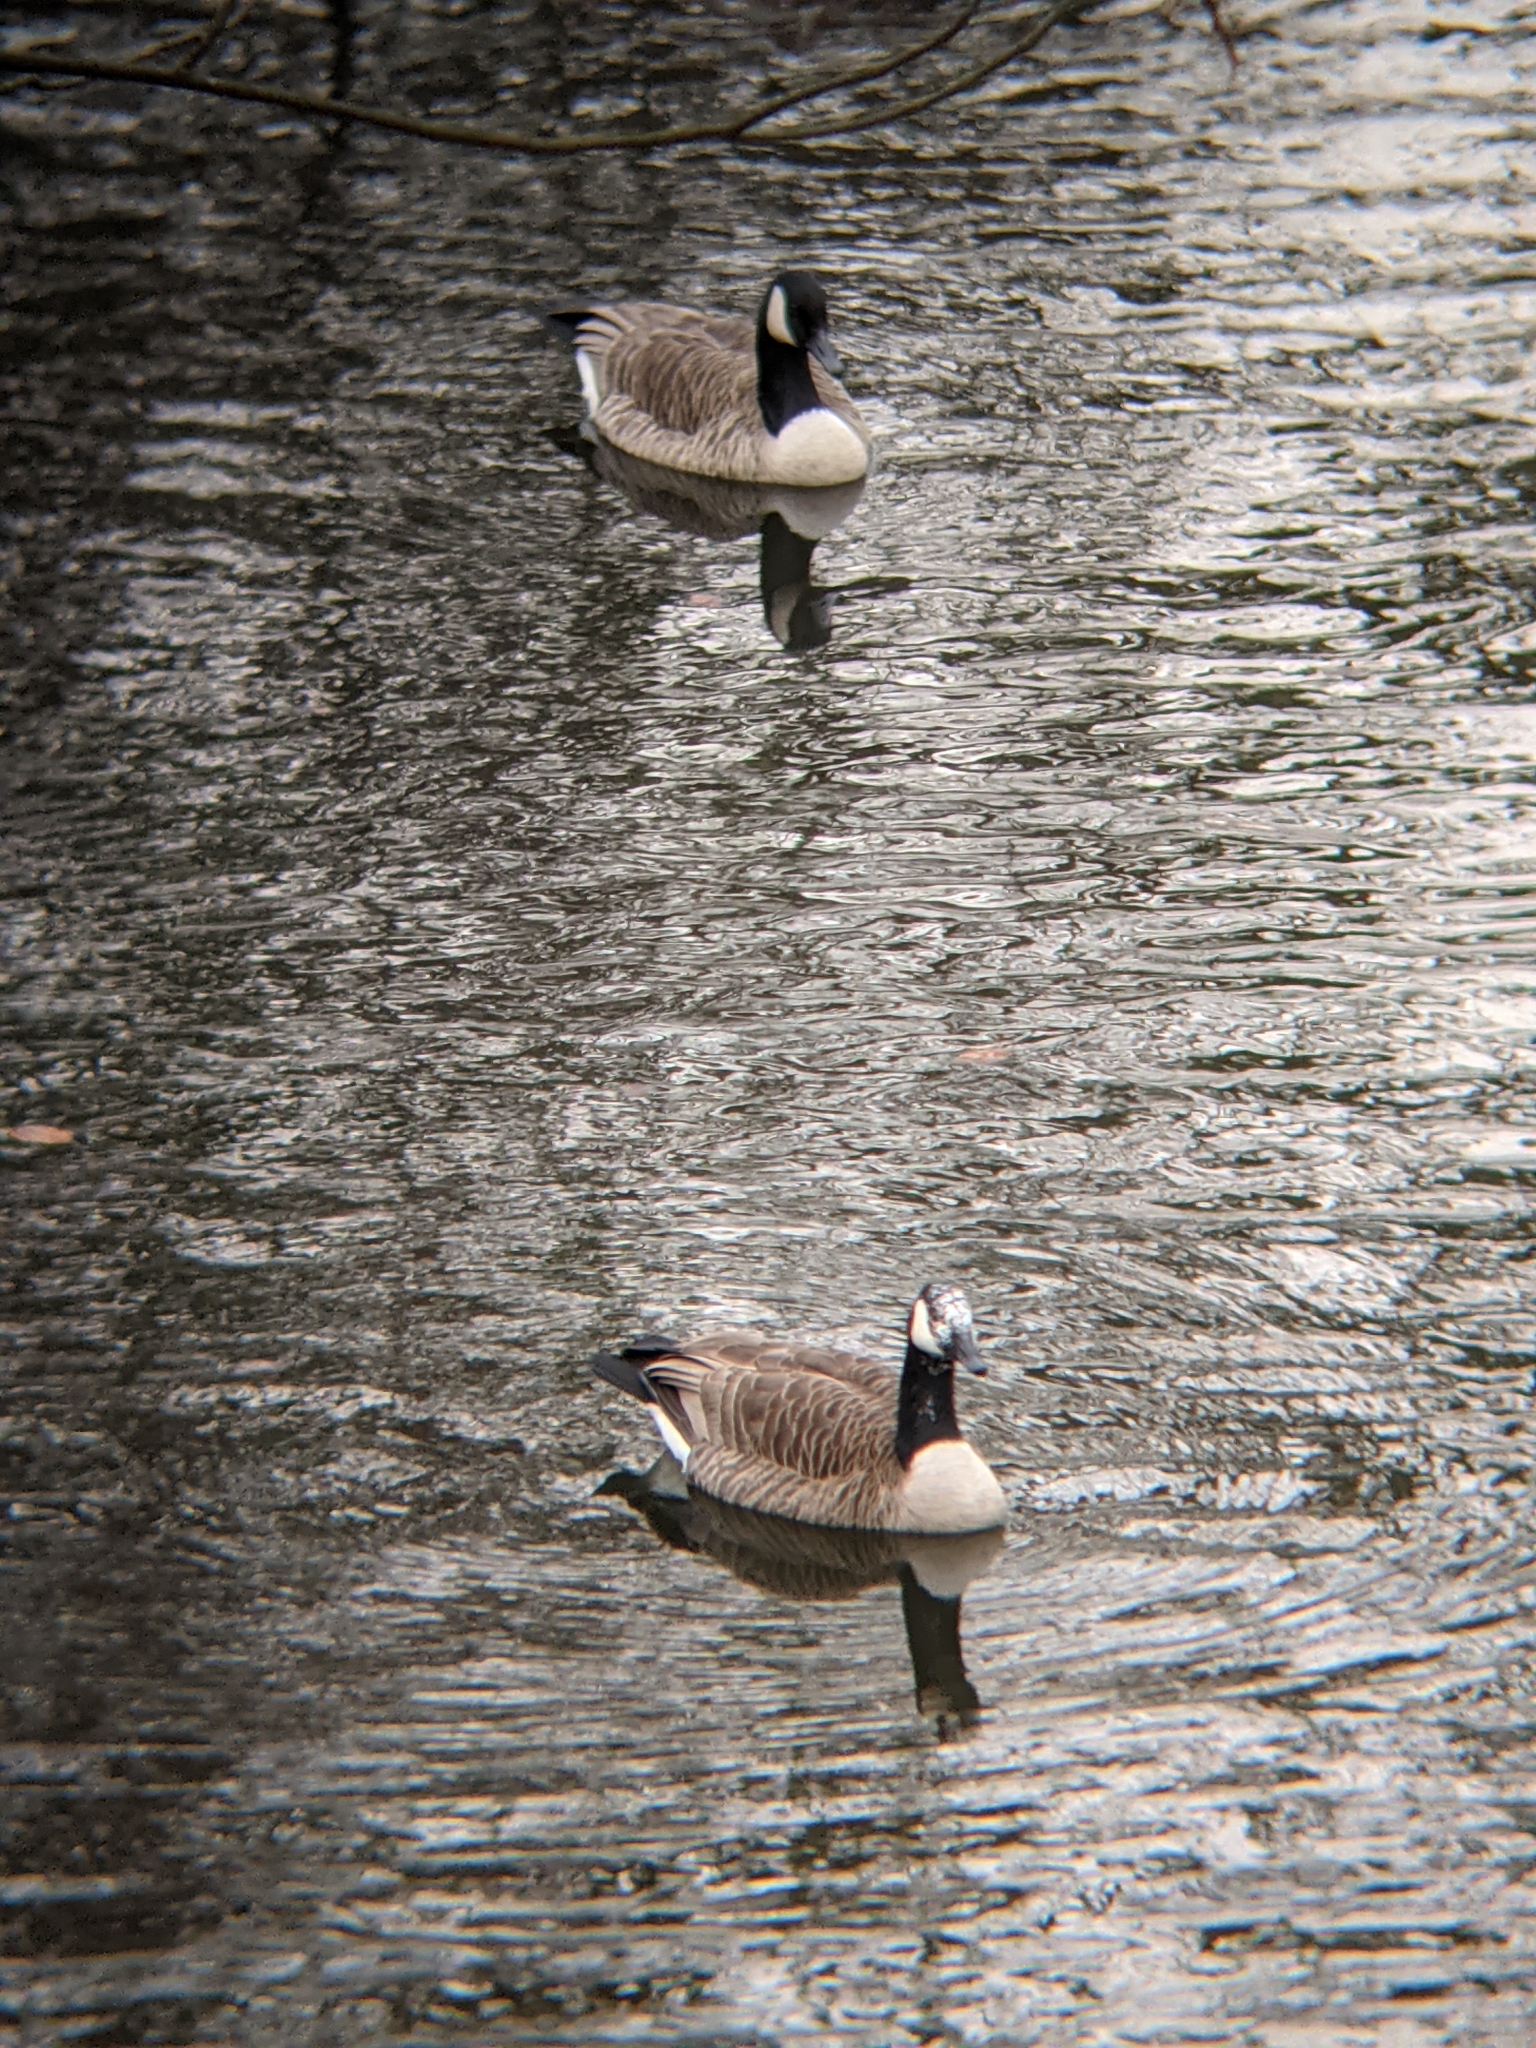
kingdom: Animalia
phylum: Chordata
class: Aves
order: Anseriformes
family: Anatidae
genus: Branta
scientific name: Branta canadensis
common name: Canada goose
